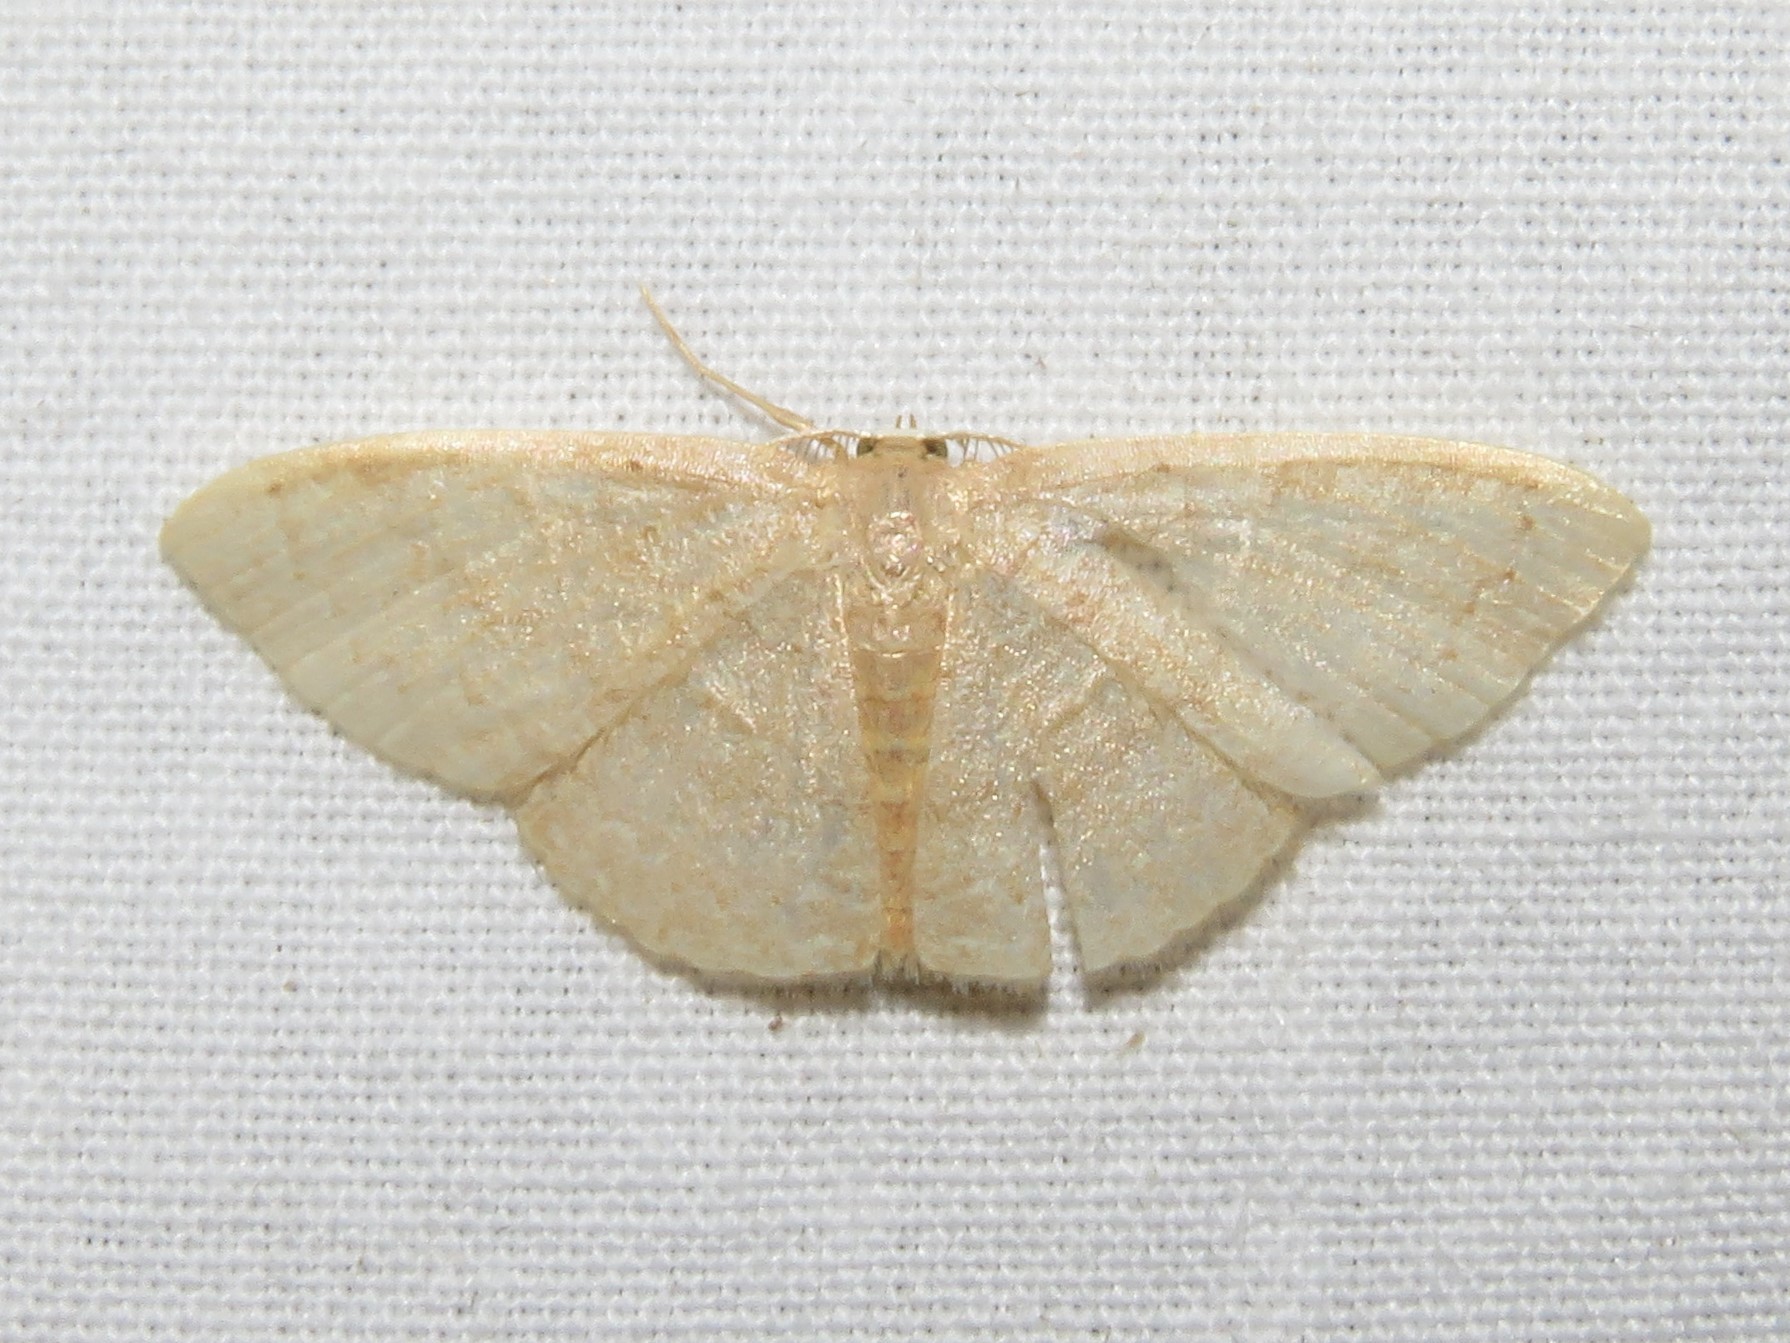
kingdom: Animalia
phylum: Arthropoda
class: Insecta
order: Lepidoptera
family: Geometridae
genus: Pleuroprucha
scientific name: Pleuroprucha insulsaria
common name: Common tan wave
